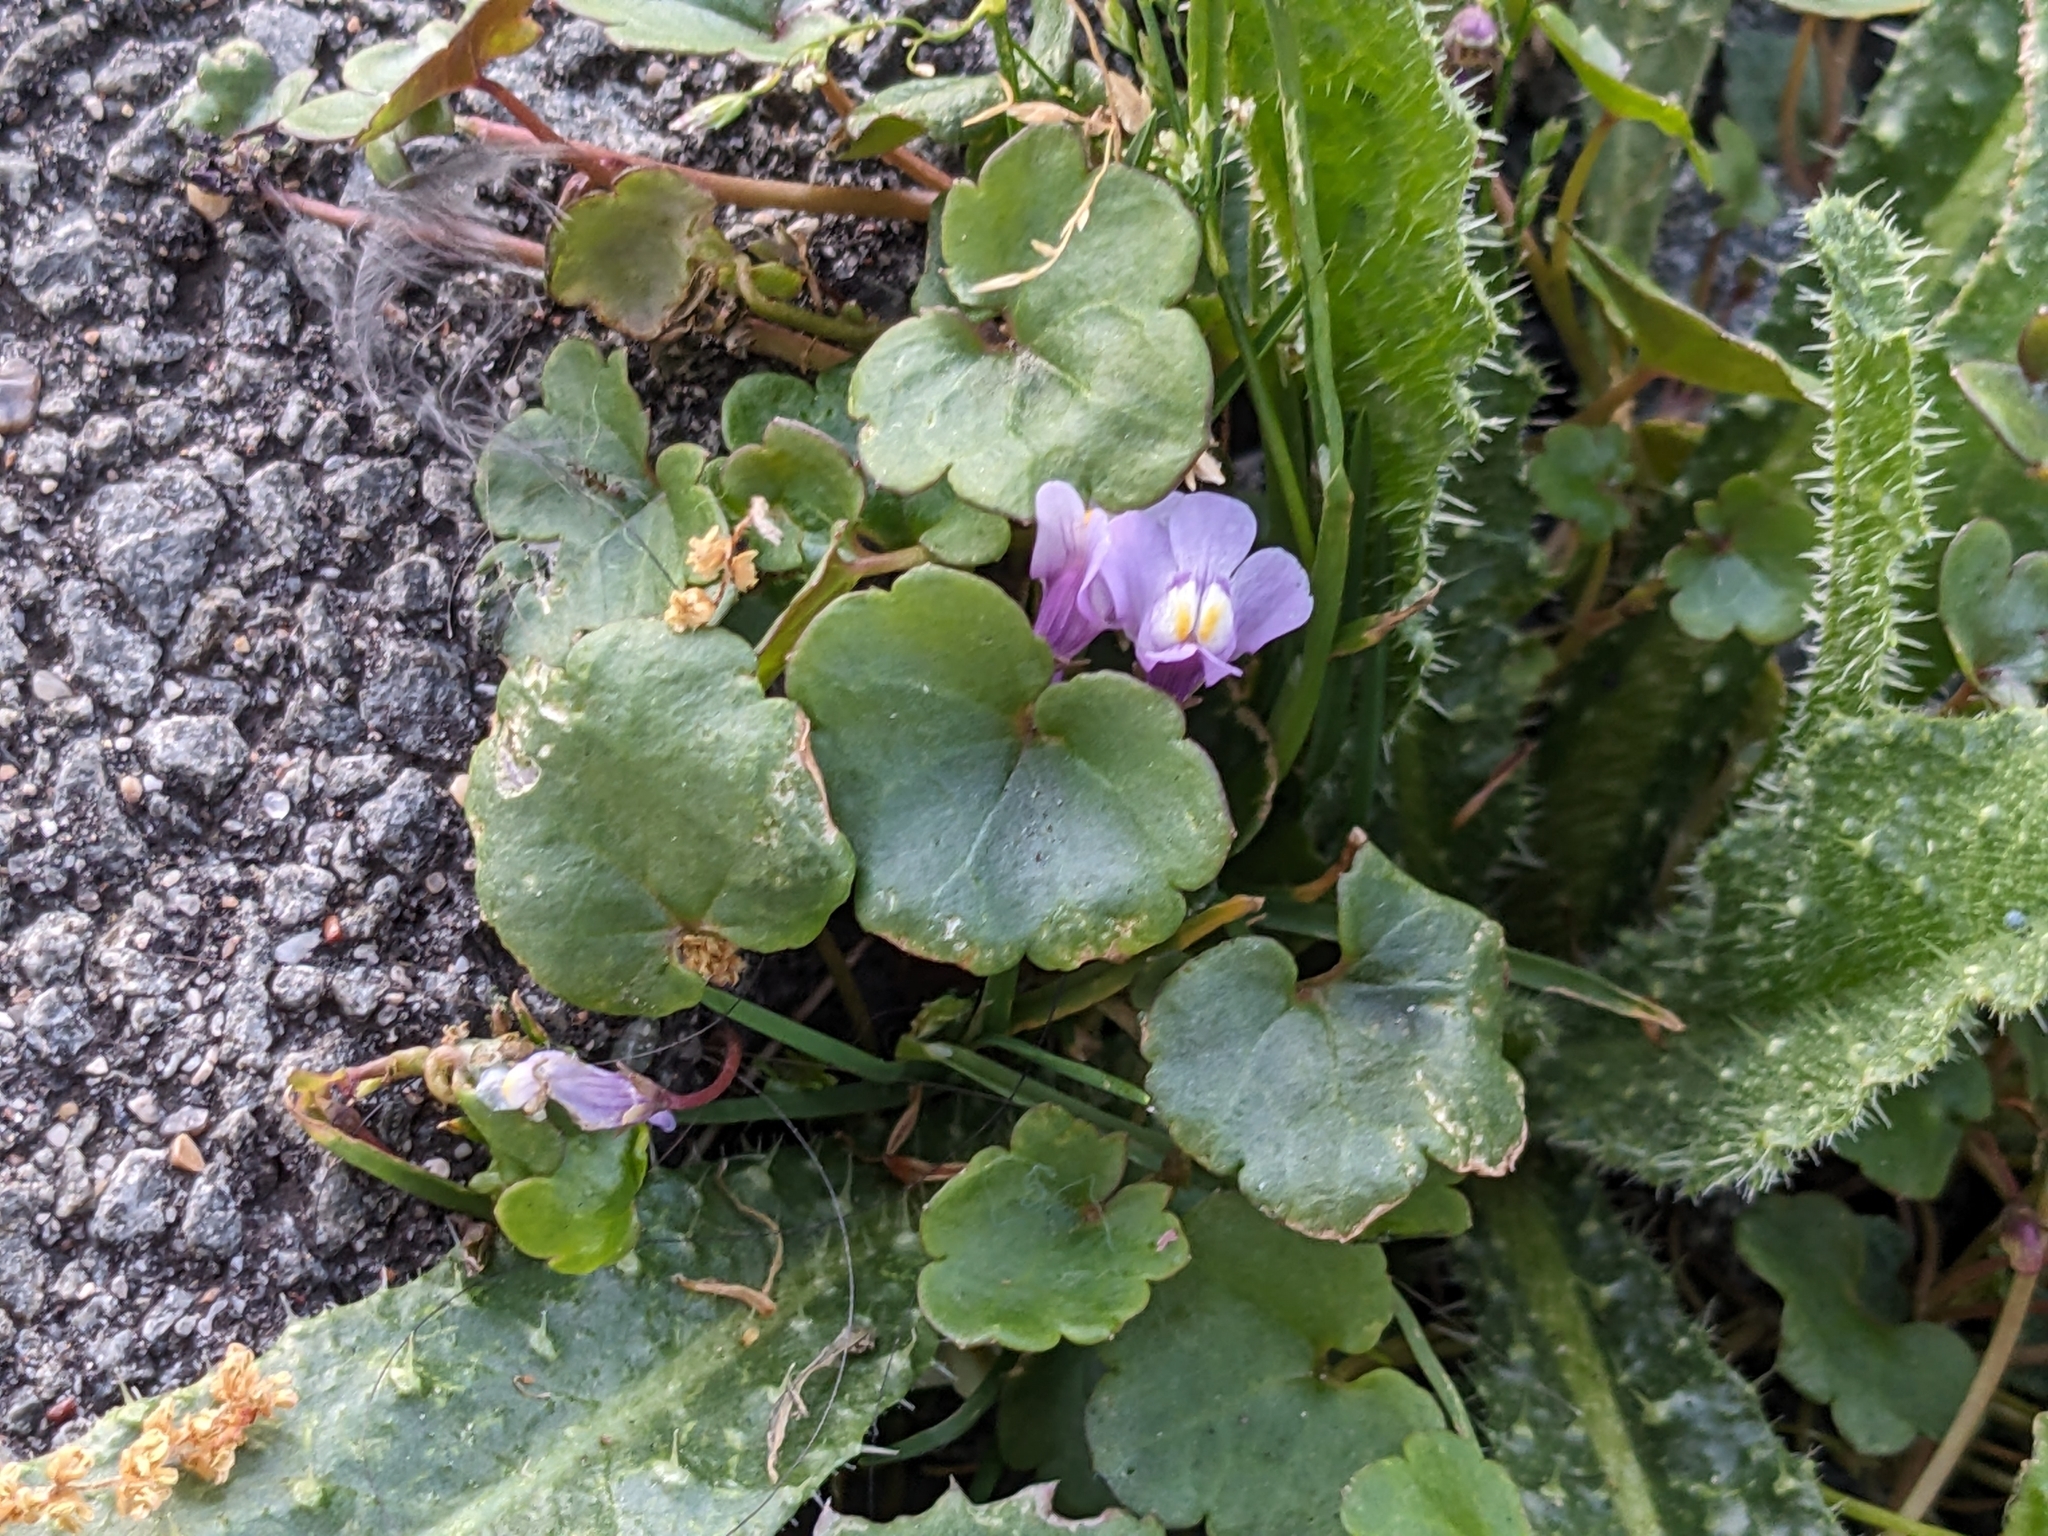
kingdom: Plantae
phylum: Tracheophyta
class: Magnoliopsida
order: Lamiales
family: Plantaginaceae
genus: Cymbalaria
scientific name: Cymbalaria muralis
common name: Ivy-leaved toadflax
